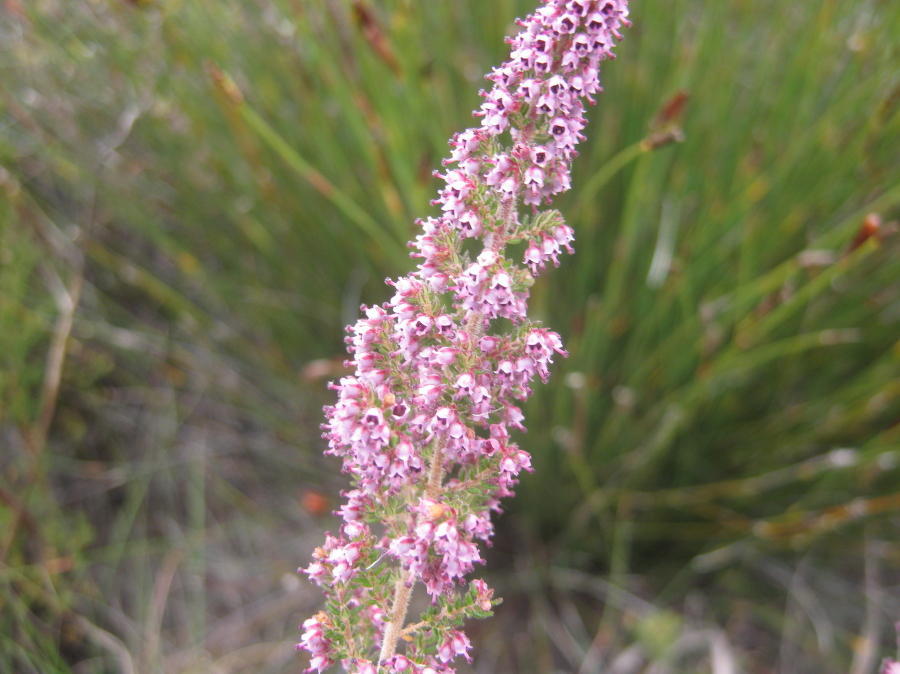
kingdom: Plantae
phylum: Tracheophyta
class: Magnoliopsida
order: Ericales
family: Ericaceae
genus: Erica
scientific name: Erica hispidula
